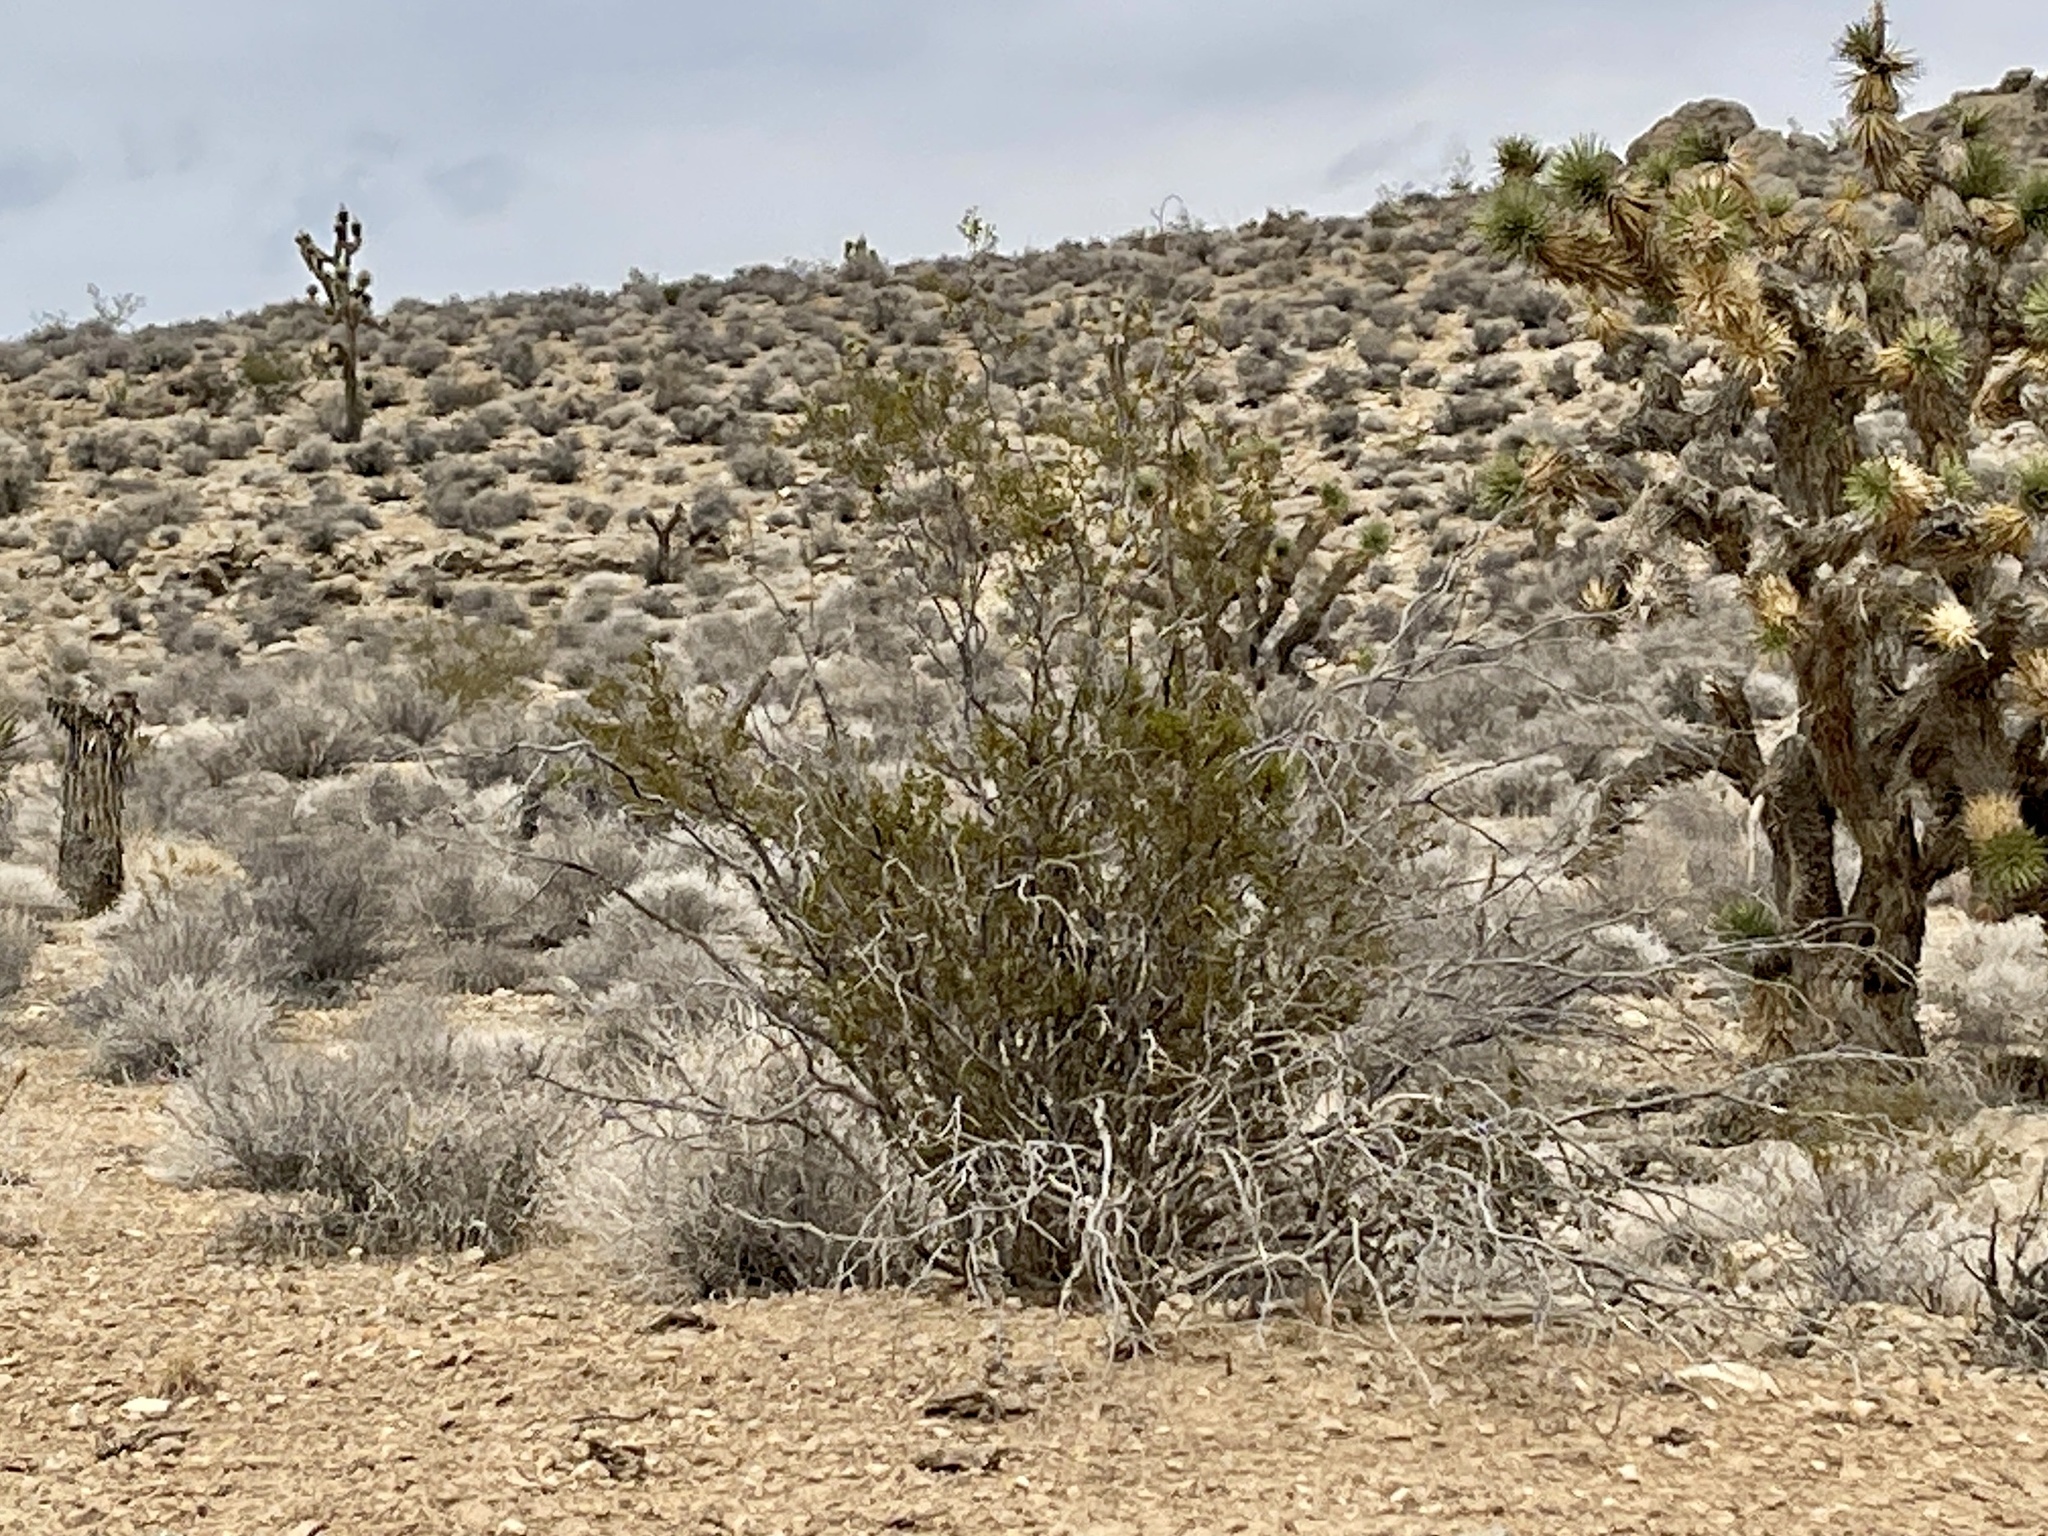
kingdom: Plantae
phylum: Tracheophyta
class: Magnoliopsida
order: Zygophyllales
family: Zygophyllaceae
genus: Larrea
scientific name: Larrea tridentata
